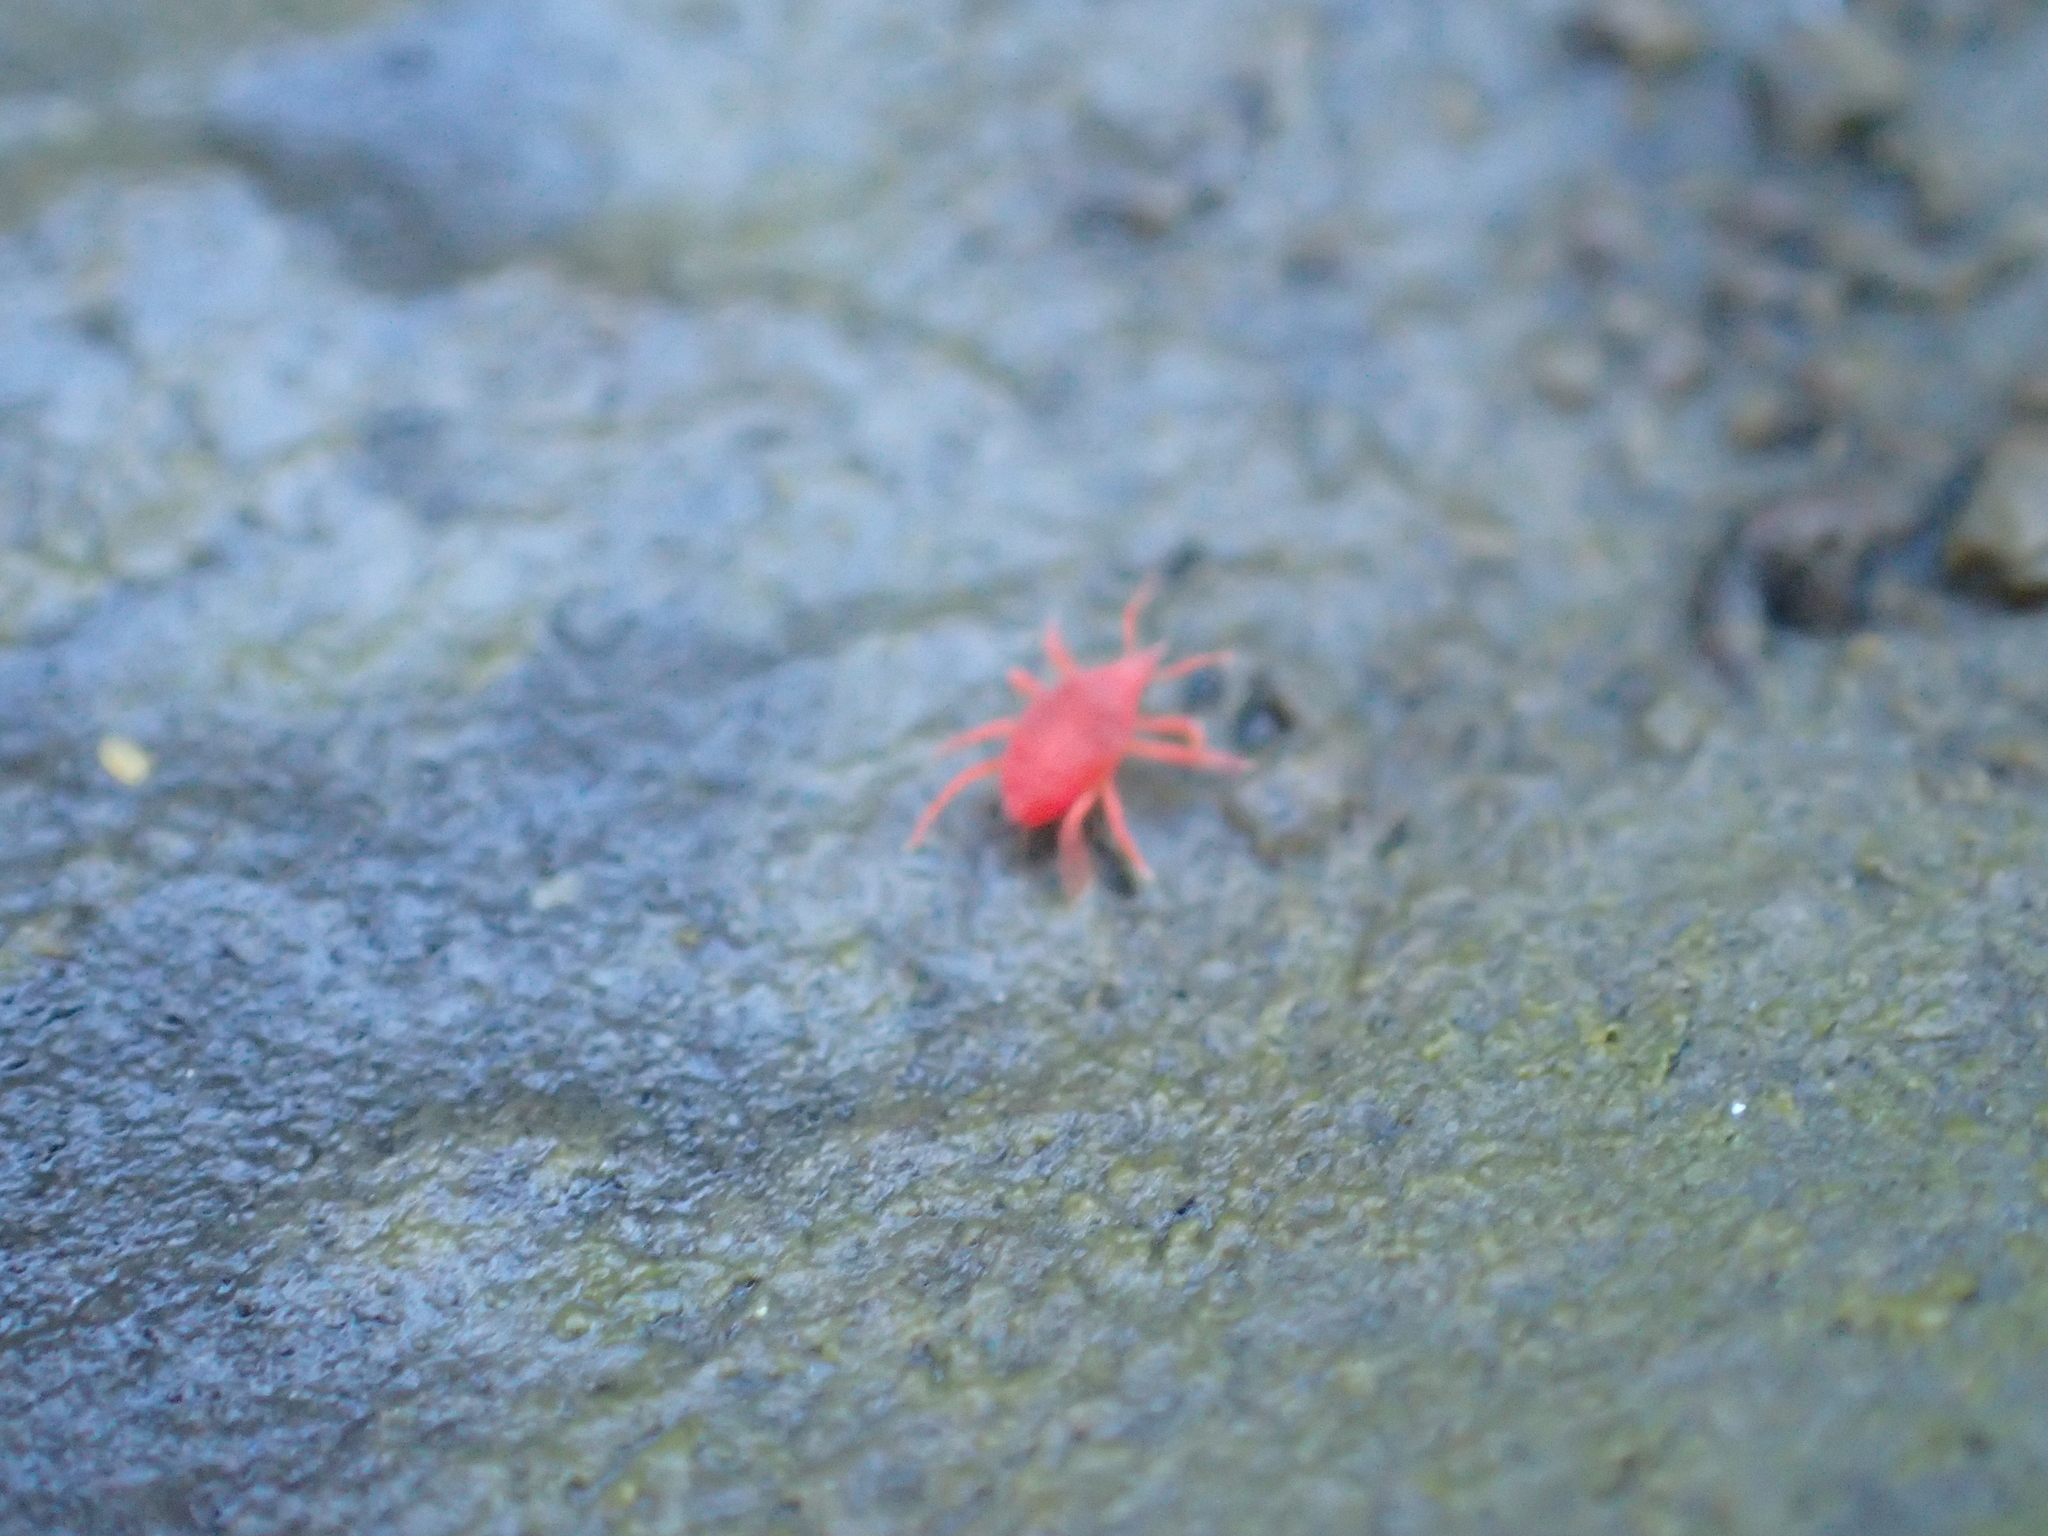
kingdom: Animalia
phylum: Arthropoda
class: Arachnida
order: Trombidiformes
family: Bdellidae
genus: Neomolgus
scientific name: Neomolgus littoralis
